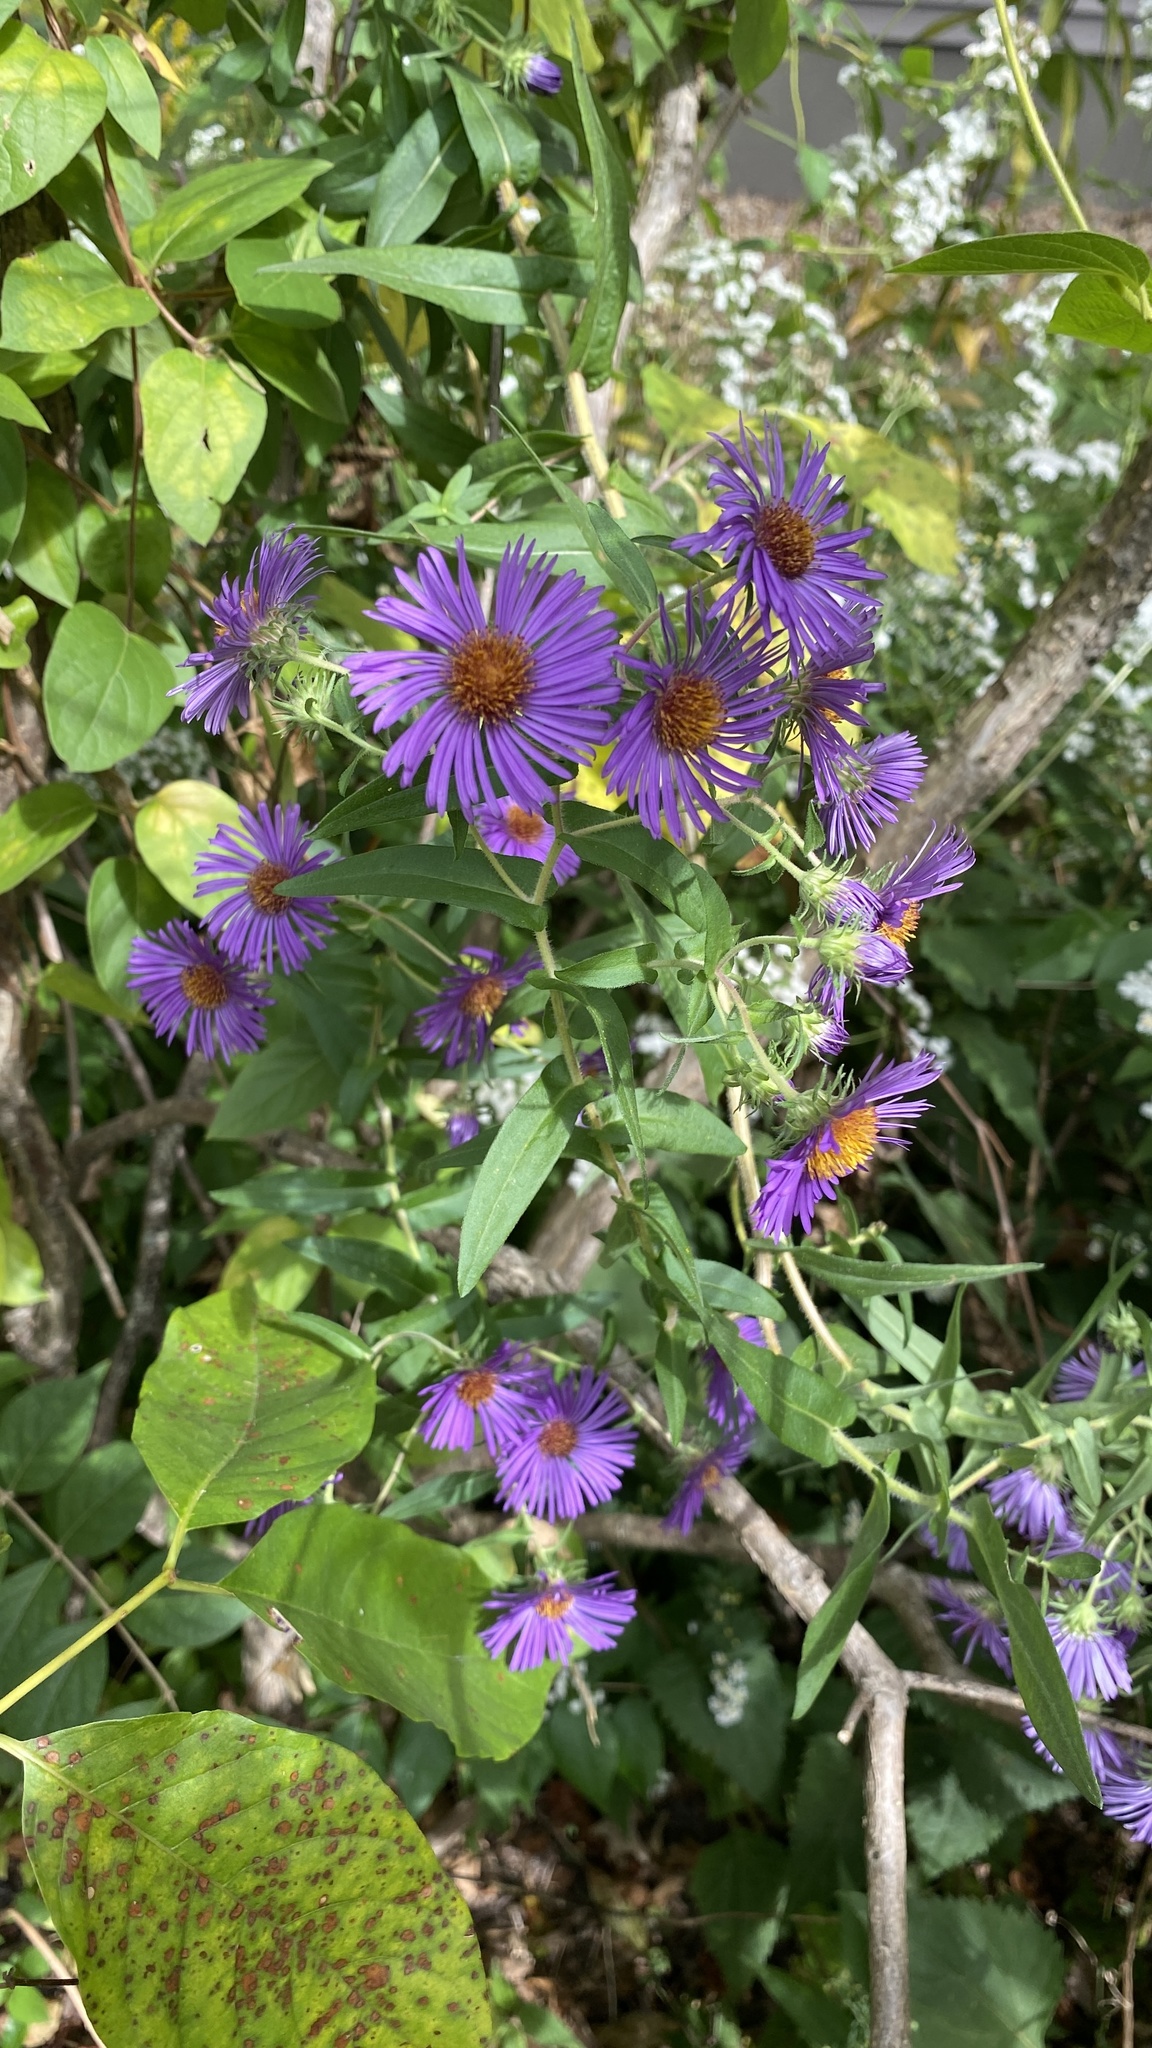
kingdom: Plantae
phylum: Tracheophyta
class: Magnoliopsida
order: Asterales
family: Asteraceae
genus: Symphyotrichum
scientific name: Symphyotrichum novae-angliae
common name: Michaelmas daisy
